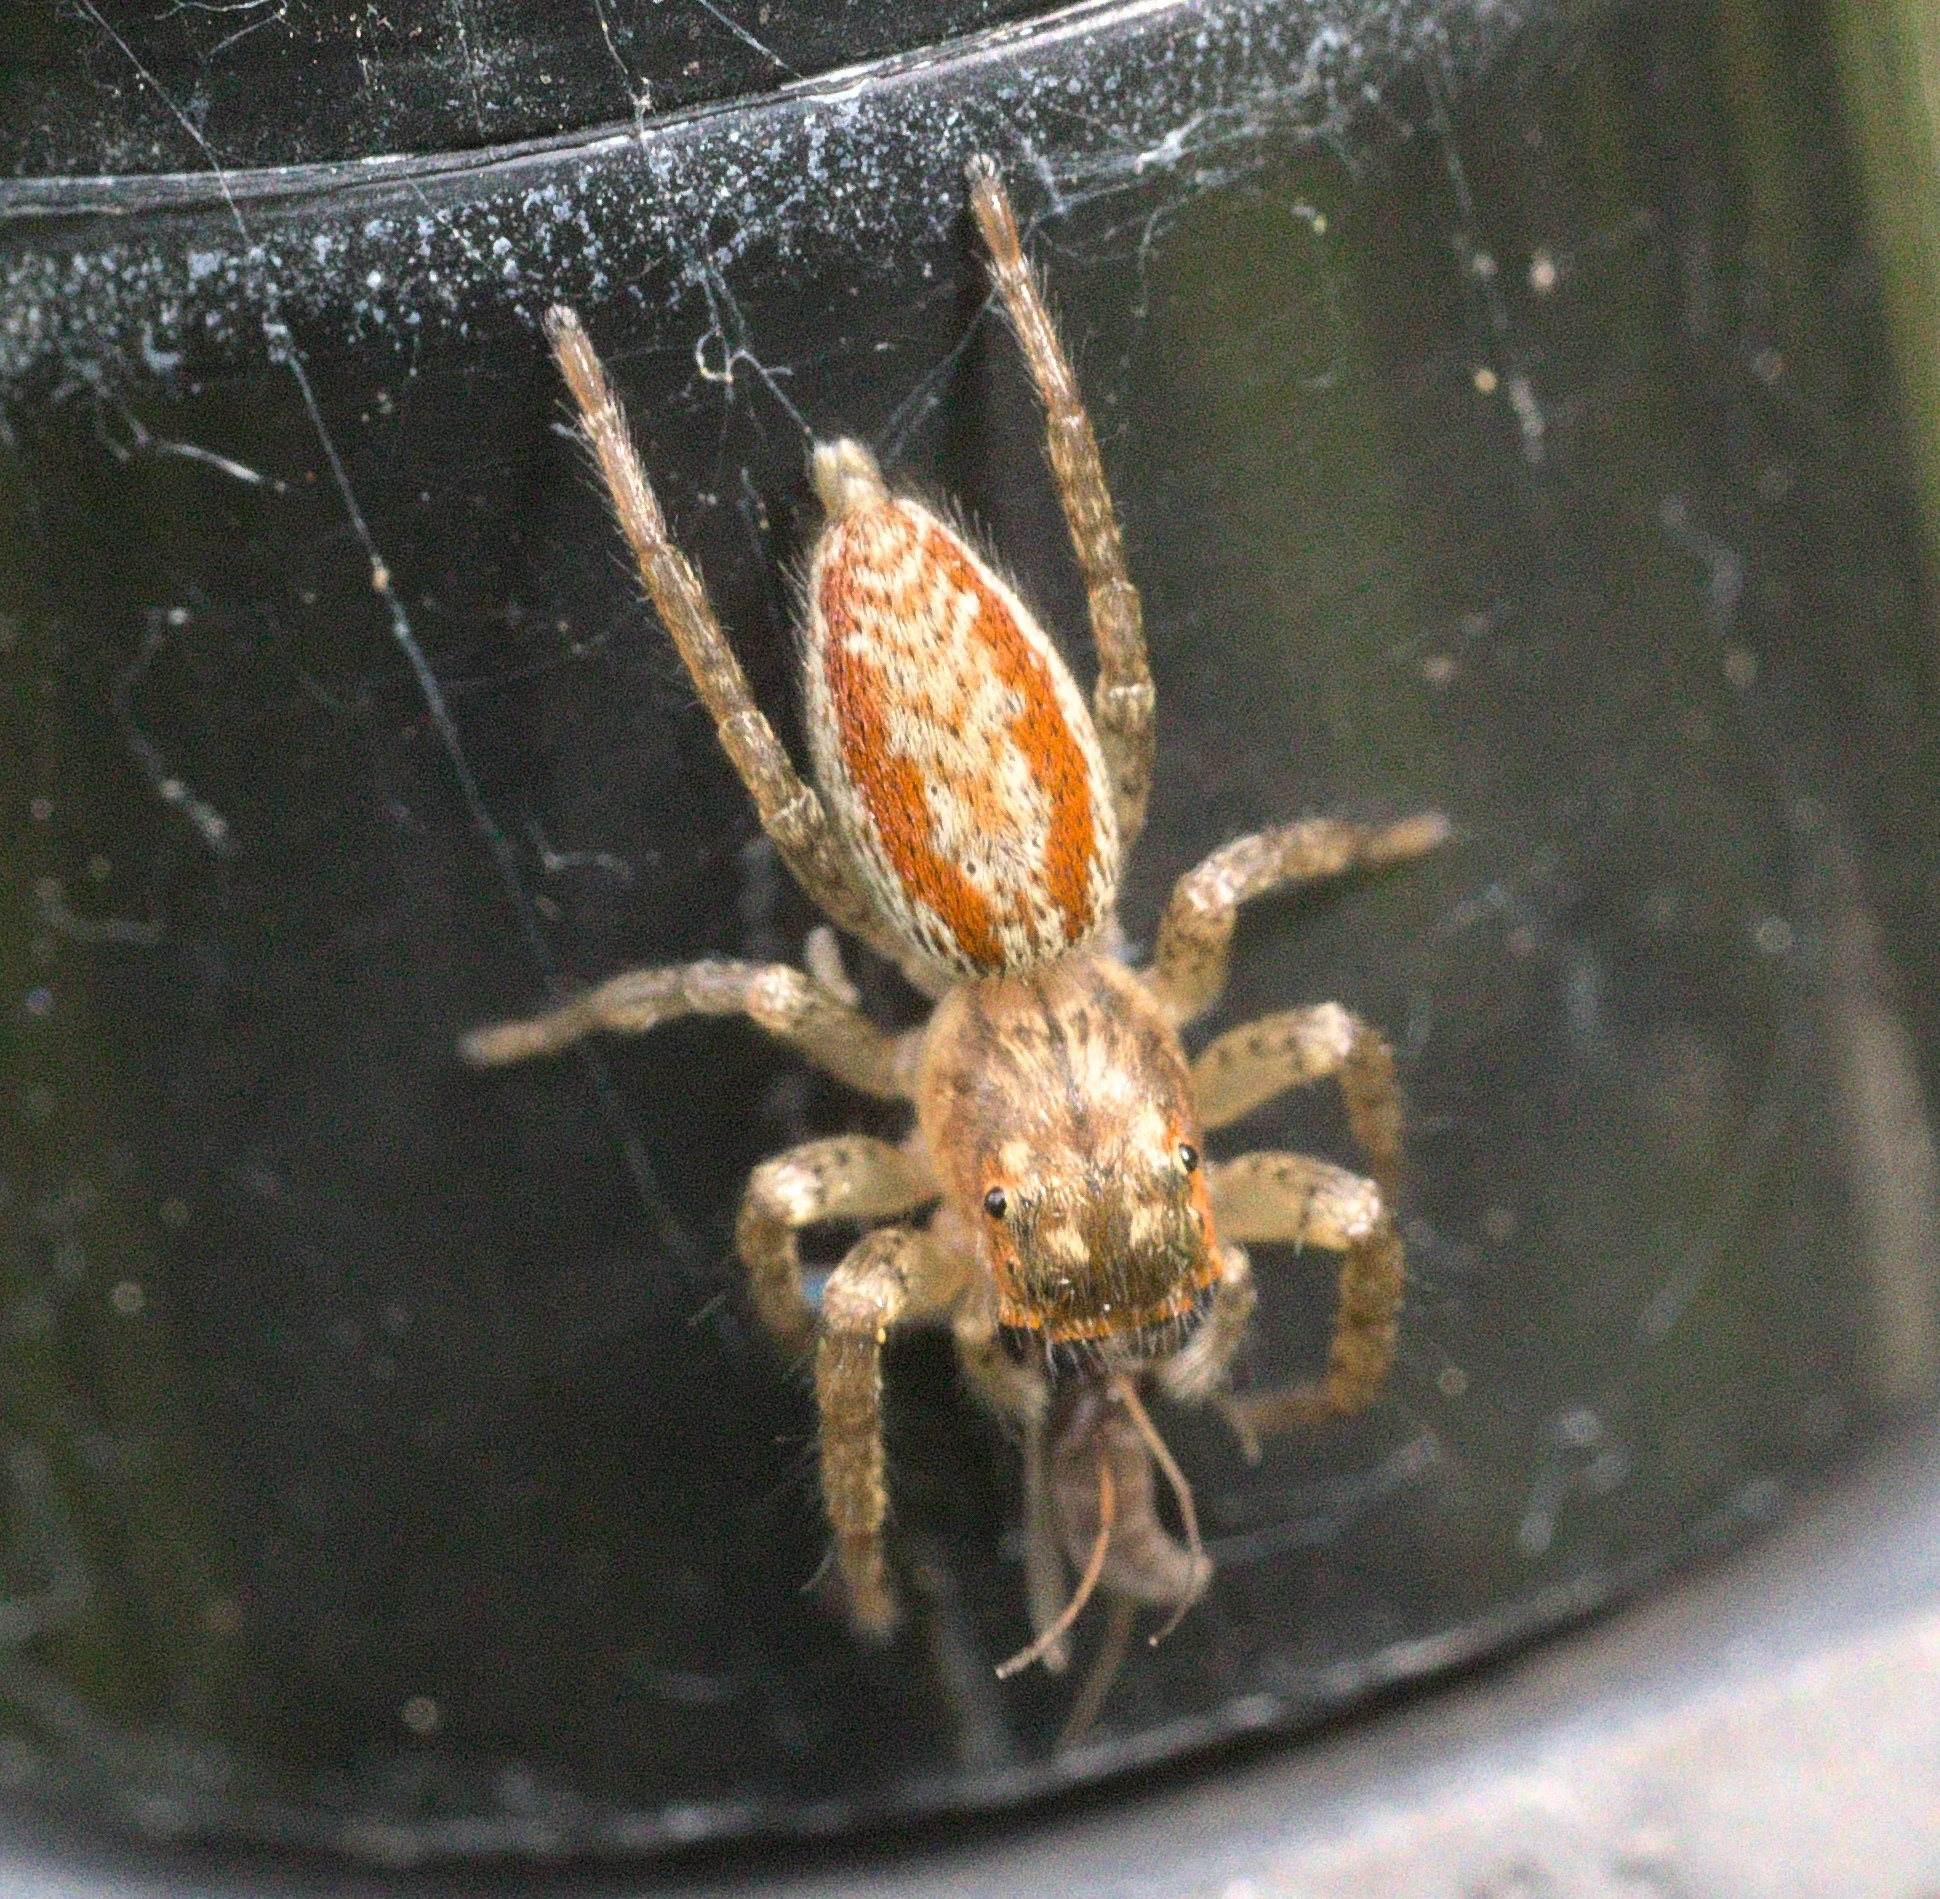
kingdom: Animalia
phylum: Arthropoda
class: Arachnida
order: Araneae
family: Salticidae
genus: Maevia
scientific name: Maevia inclemens
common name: Dimorphic jumper
